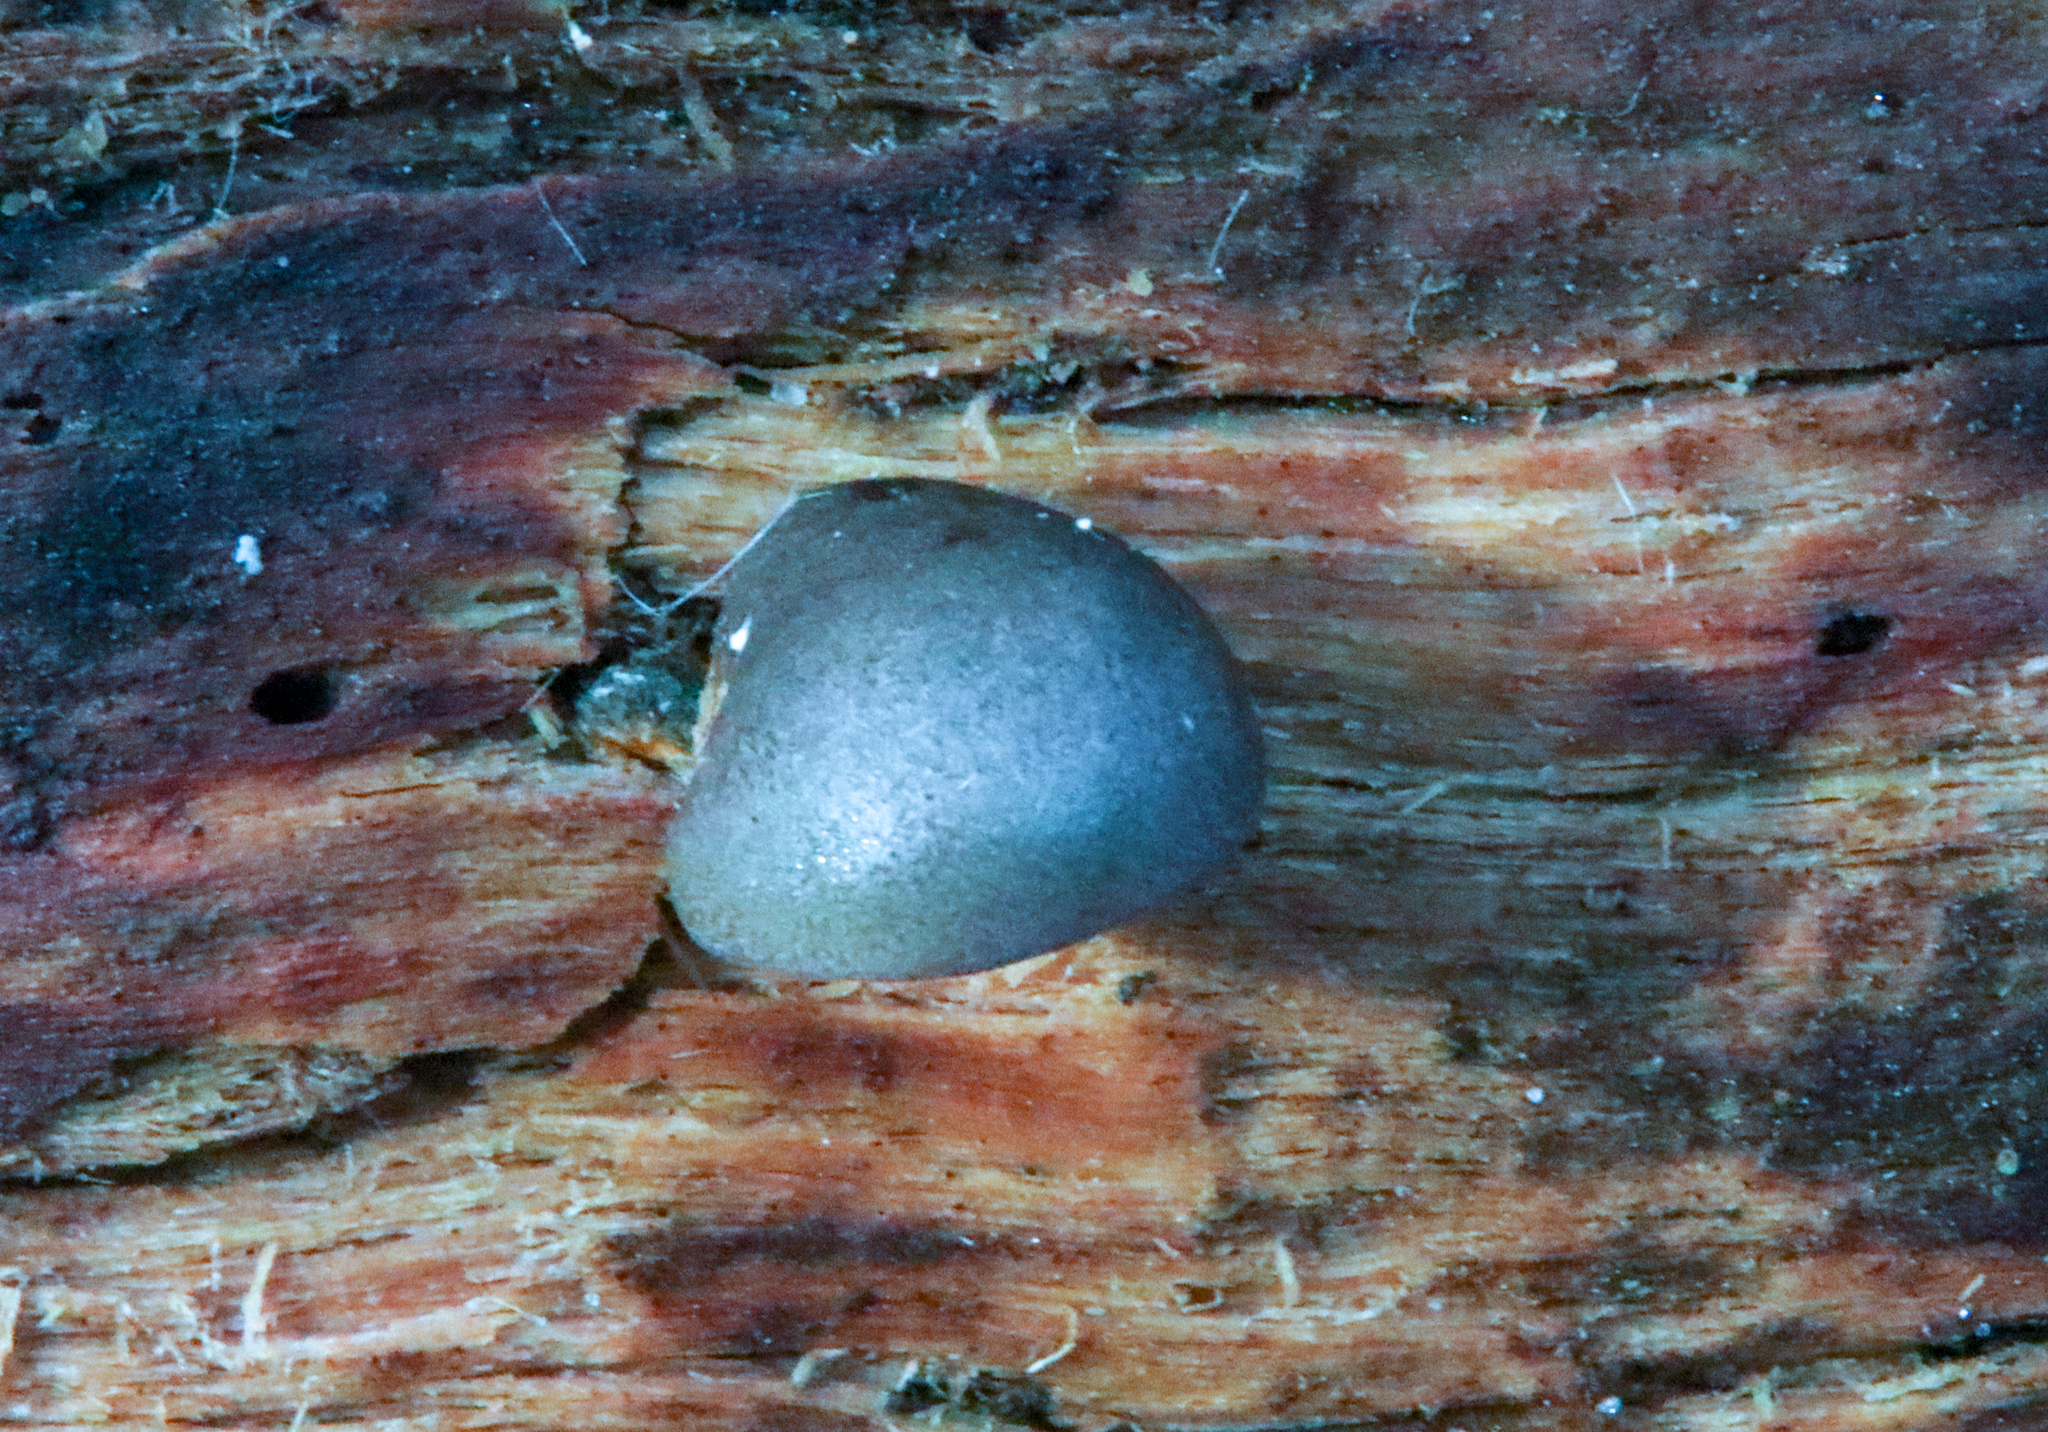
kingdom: Protozoa
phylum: Mycetozoa
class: Myxomycetes
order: Cribrariales
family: Tubiferaceae
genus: Lycogala
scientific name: Lycogala epidendrum
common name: Wolf's milk
